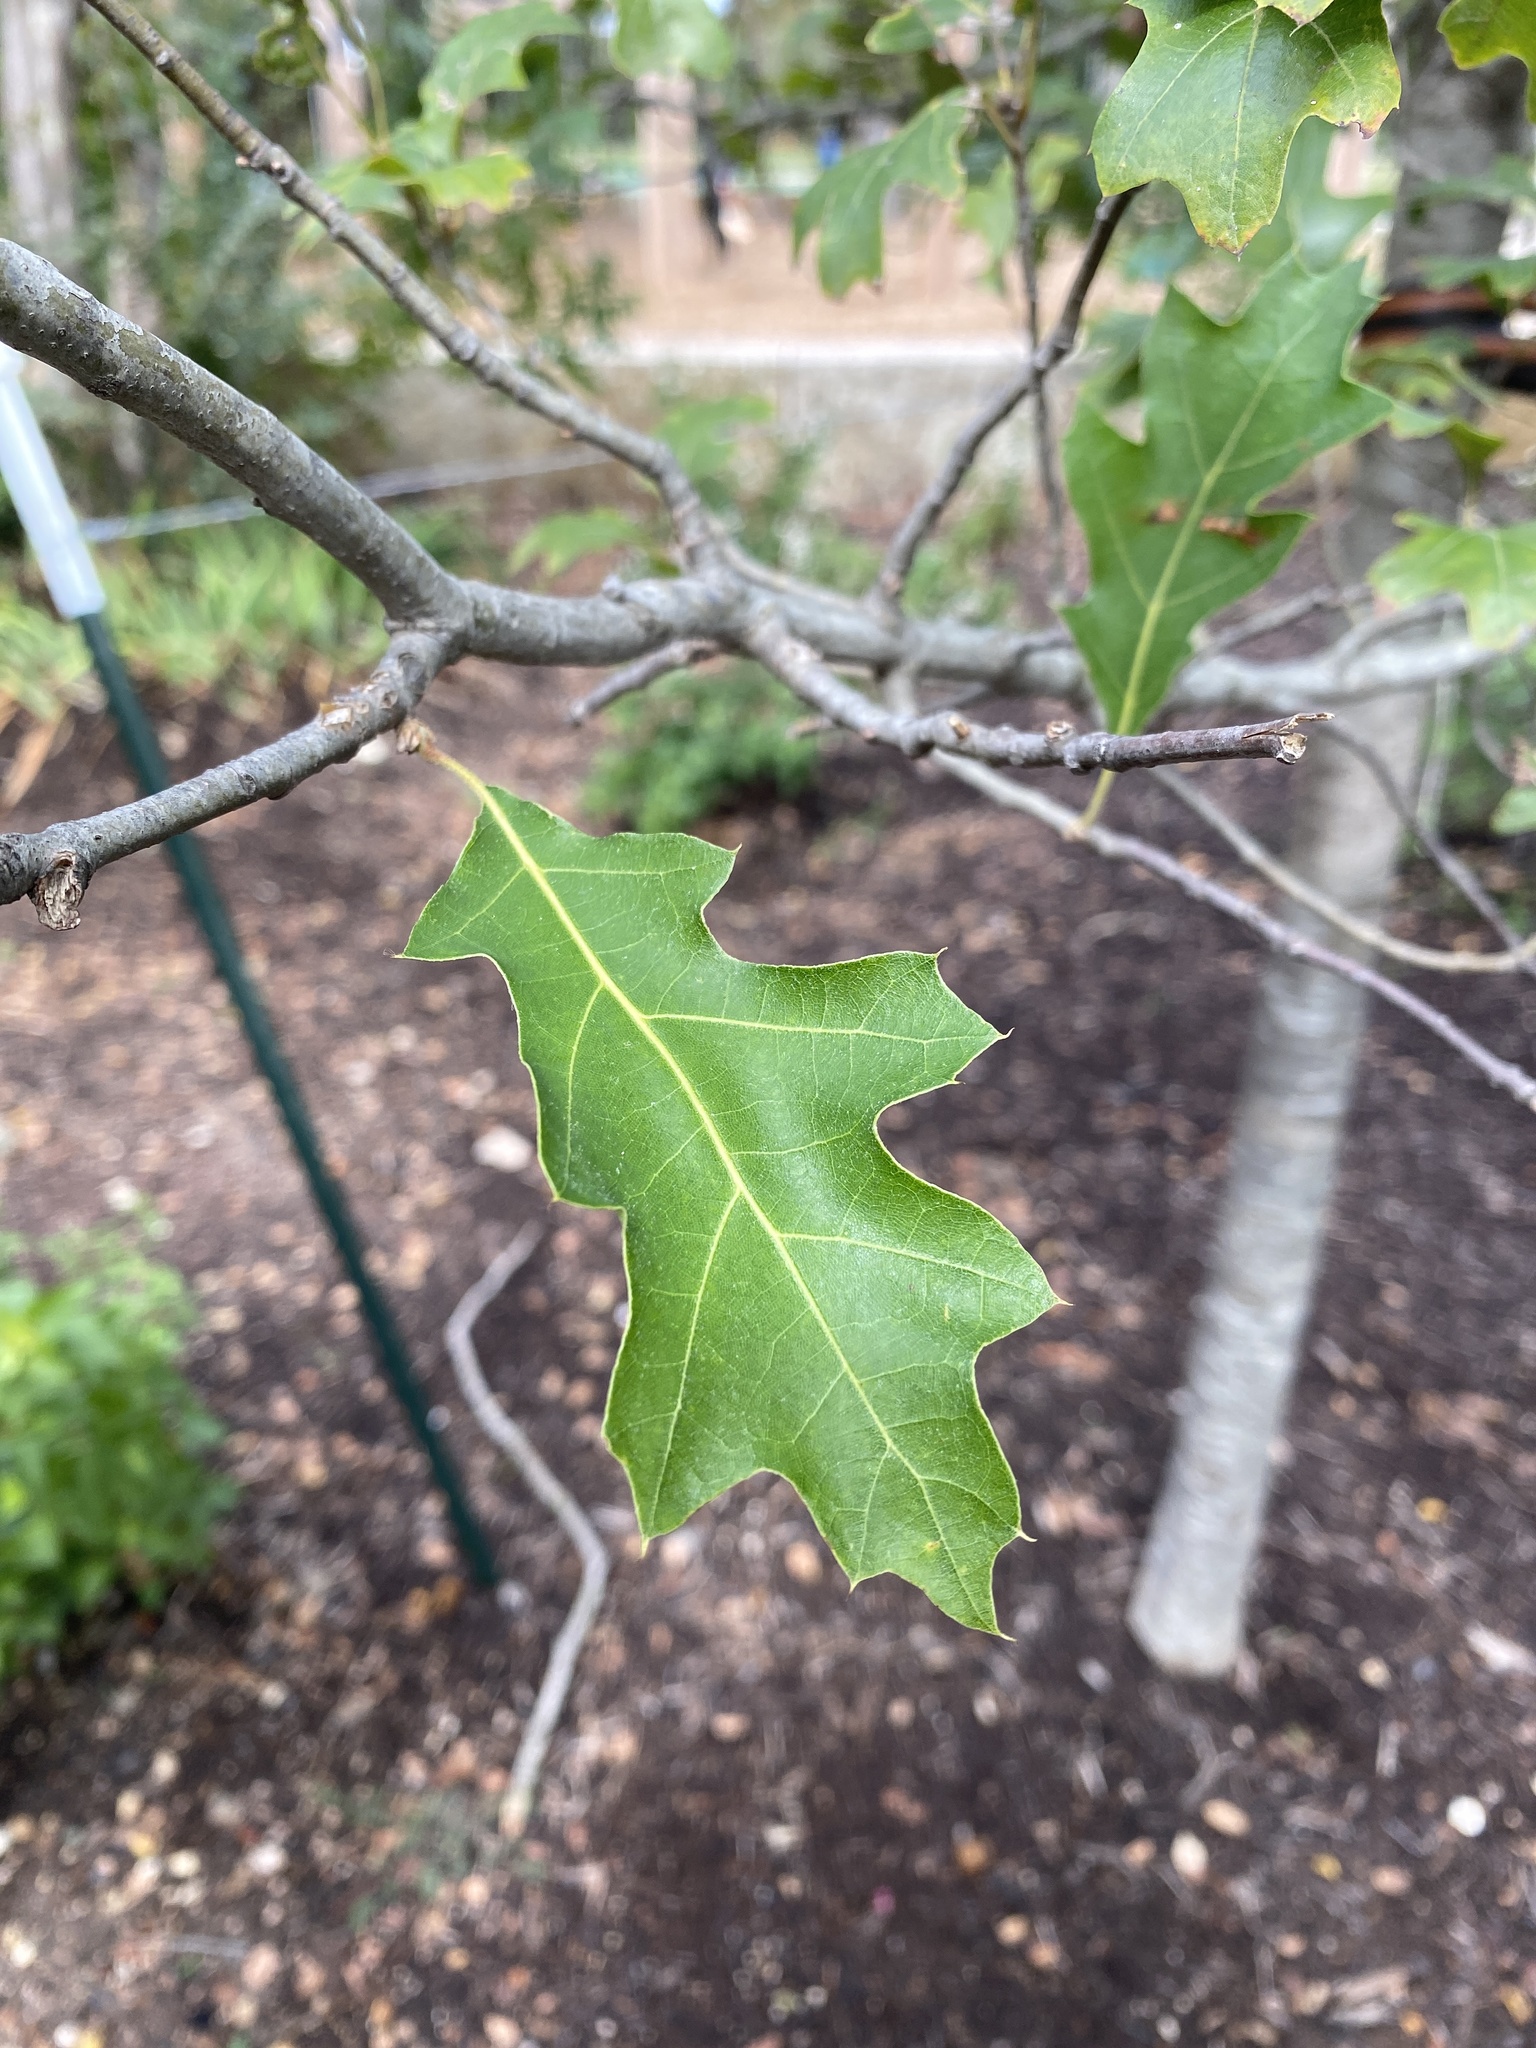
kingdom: Plantae
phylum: Tracheophyta
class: Magnoliopsida
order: Fagales
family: Fagaceae
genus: Quercus
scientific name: Quercus shumardii
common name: Shumard oak
